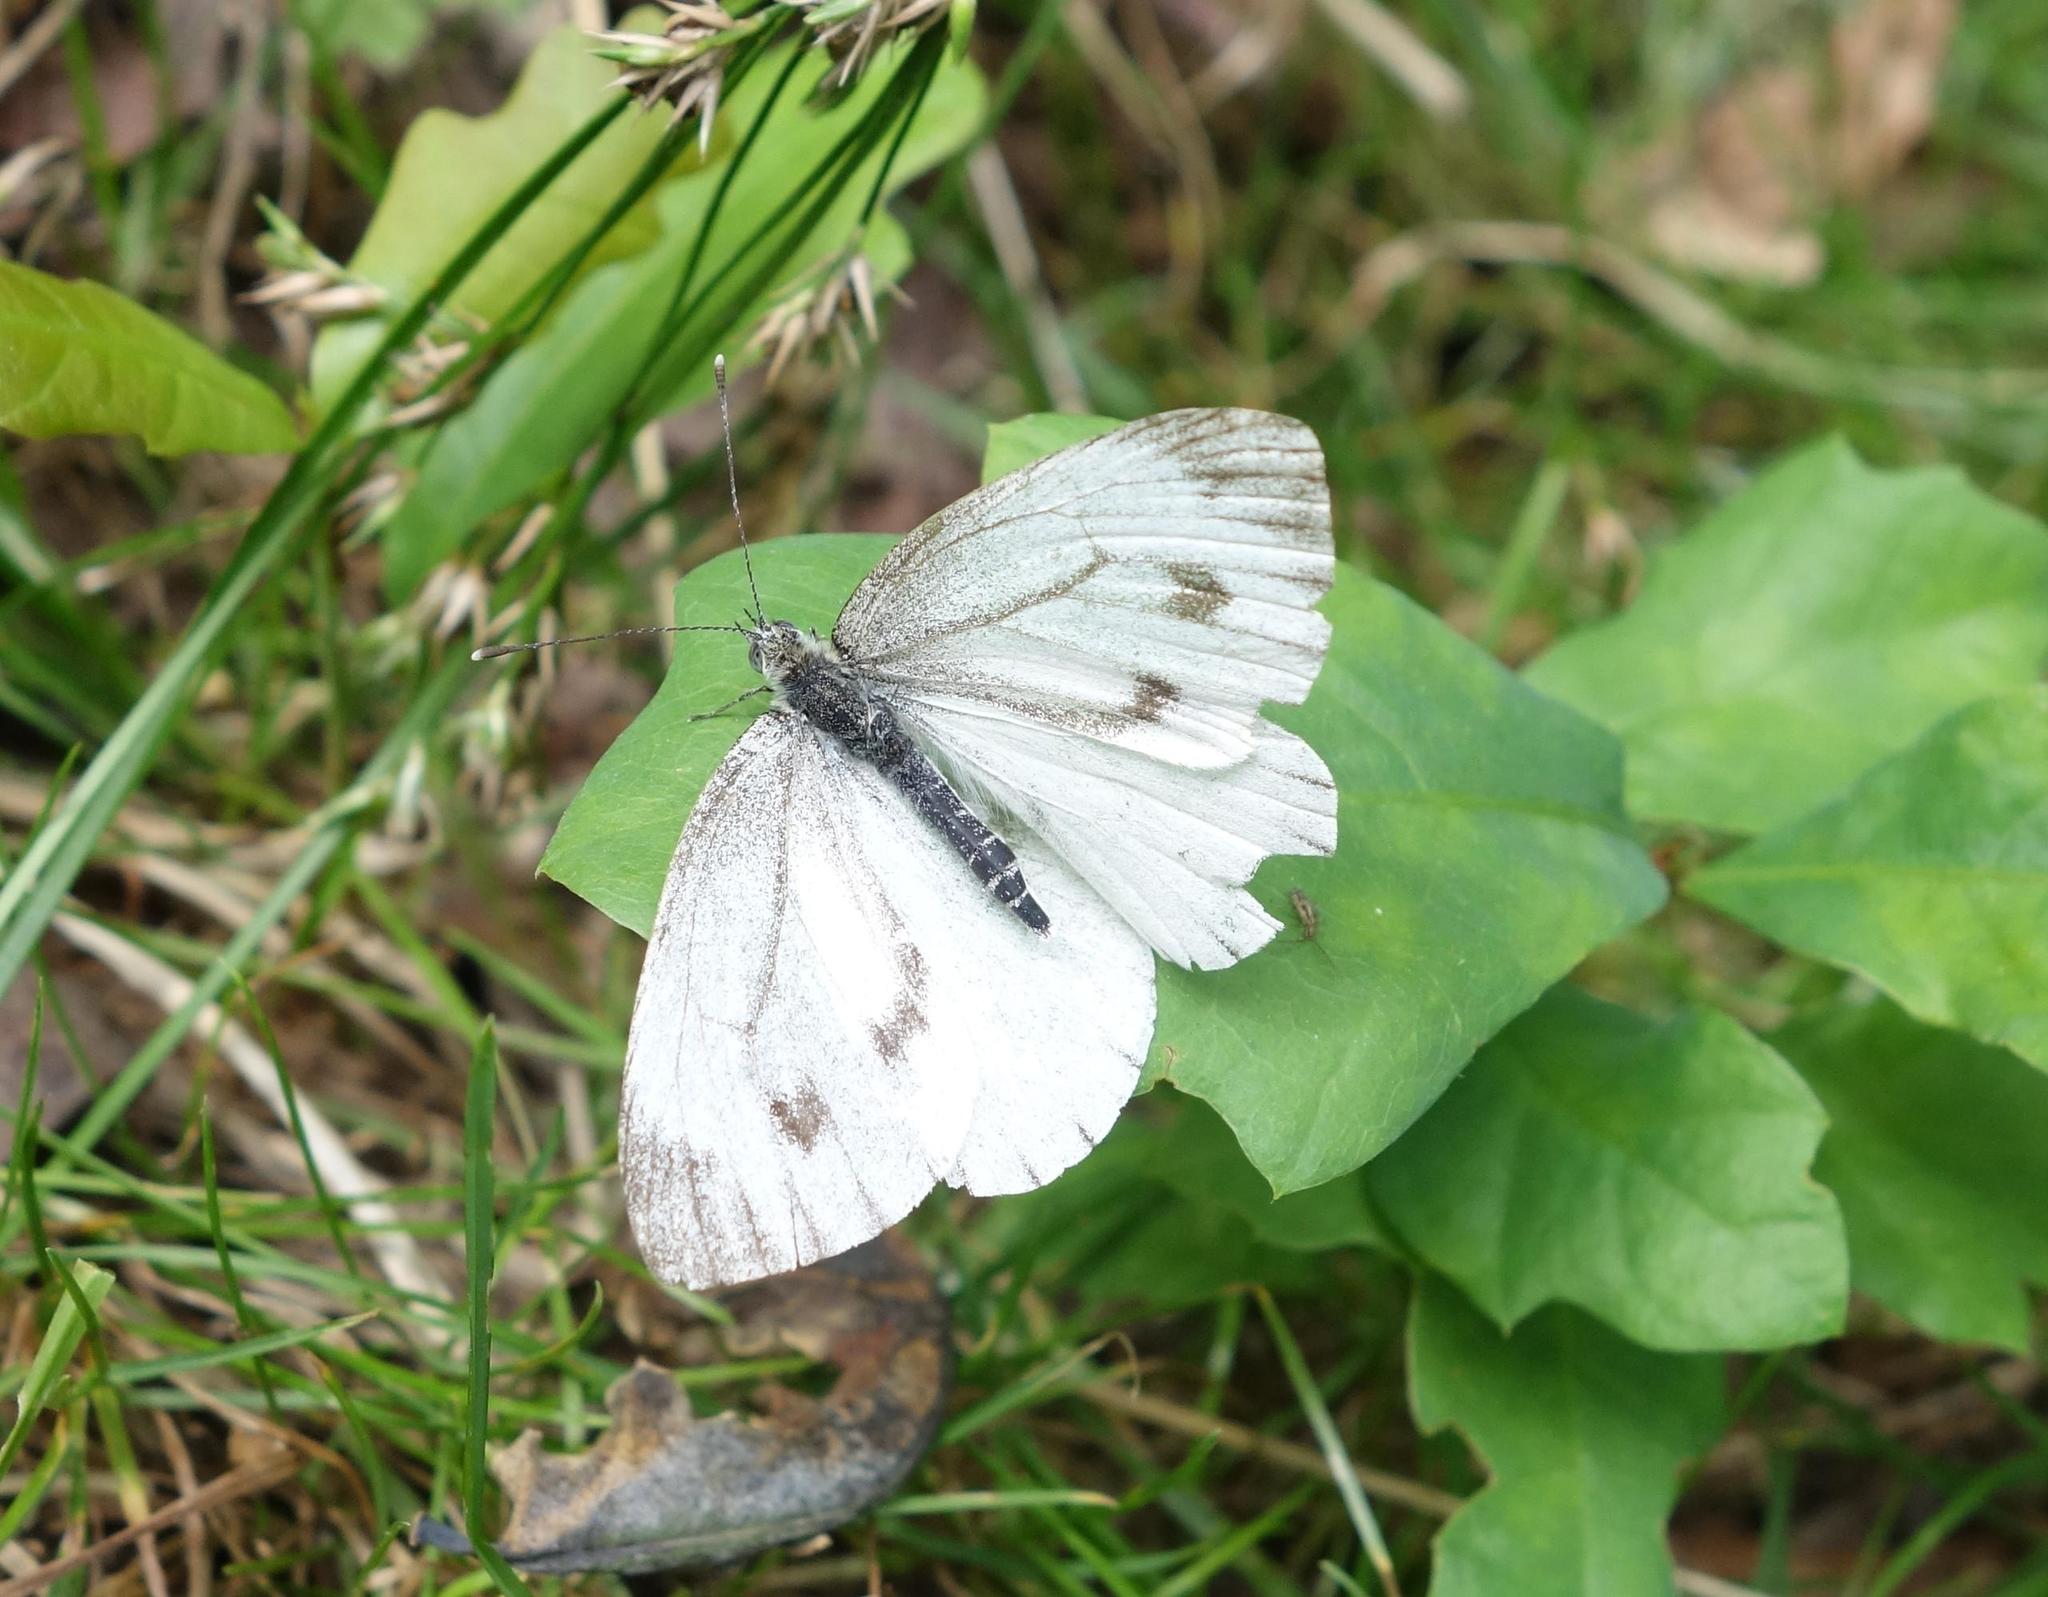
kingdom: Animalia
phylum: Arthropoda
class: Insecta
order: Lepidoptera
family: Pieridae
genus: Pieris
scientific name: Pieris napi
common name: Green-veined white
